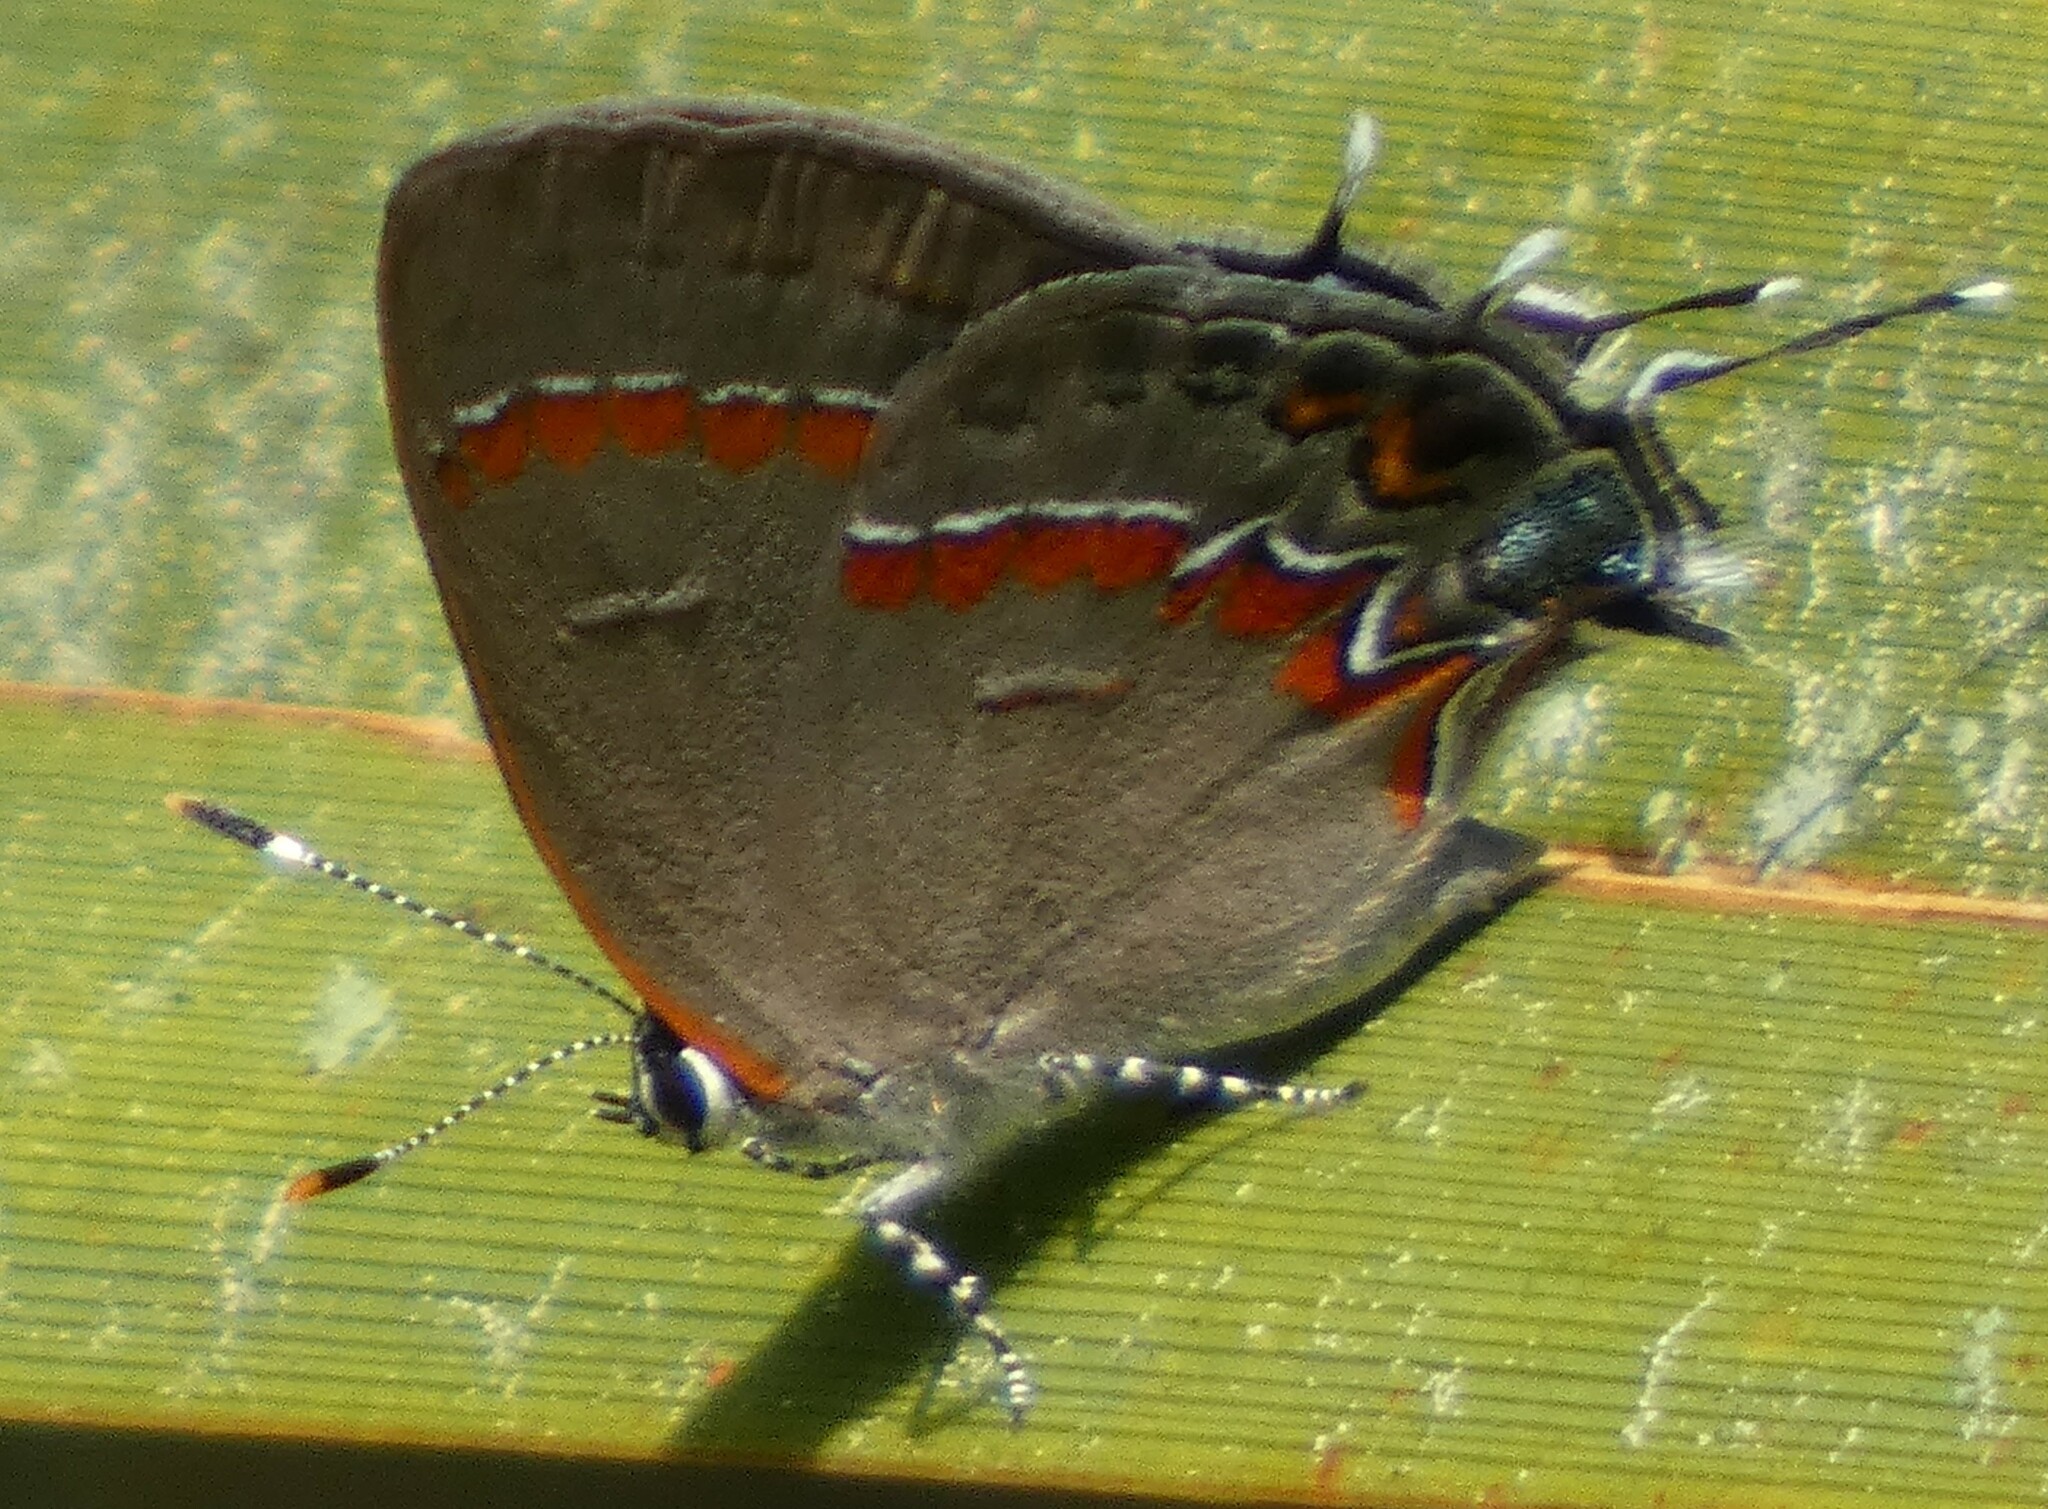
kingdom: Animalia
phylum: Arthropoda
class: Insecta
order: Lepidoptera
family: Lycaenidae
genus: Calycopis
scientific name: Calycopis cecrops
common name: Red-banded hairstreak
